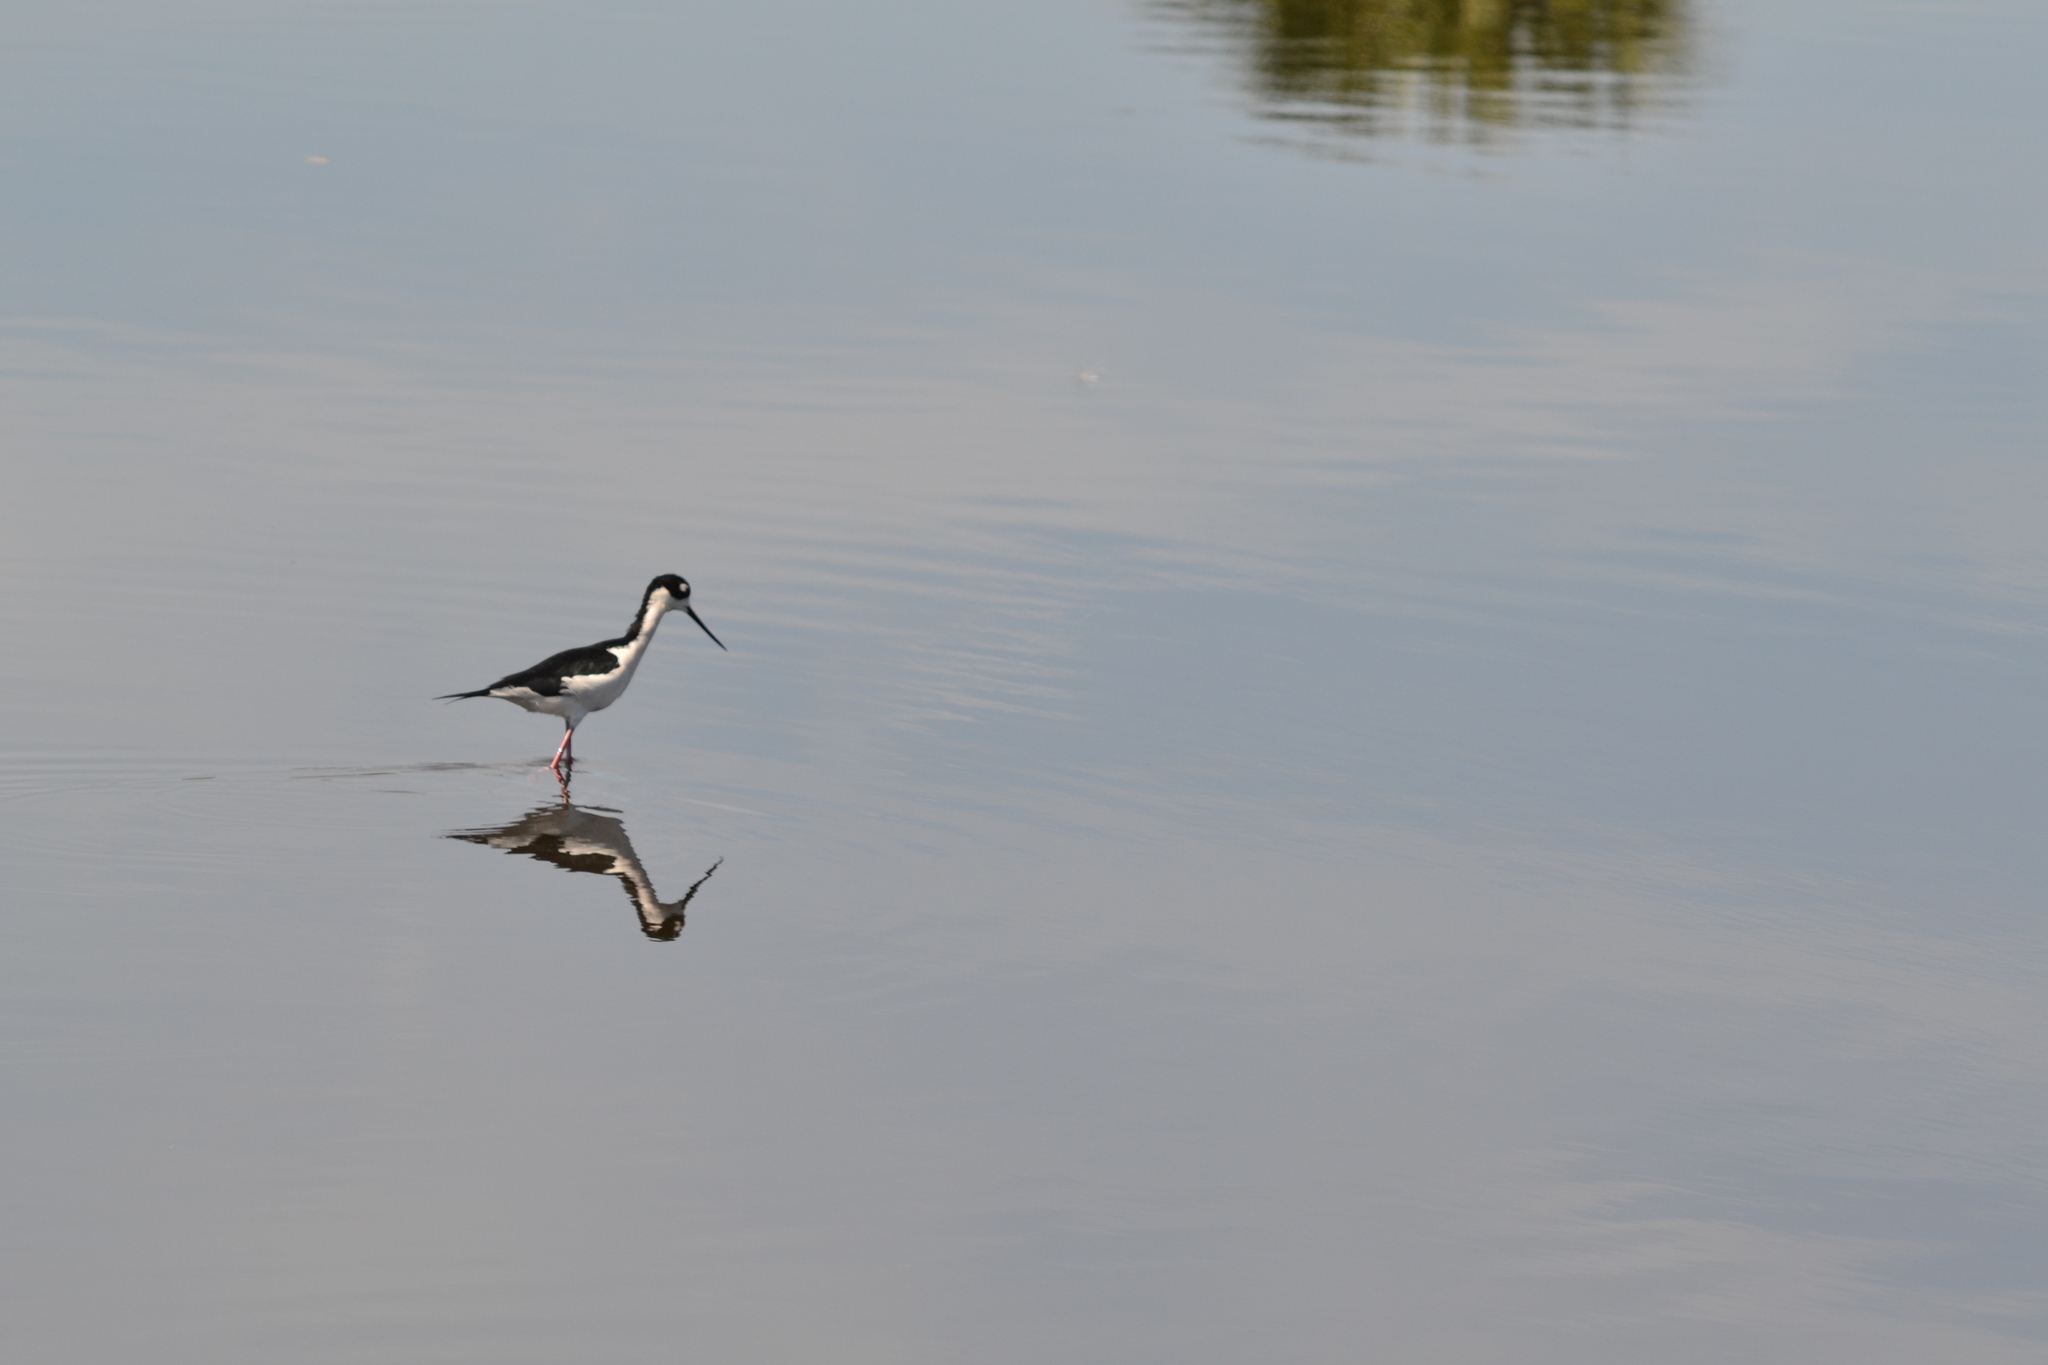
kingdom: Animalia
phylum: Chordata
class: Aves
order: Charadriiformes
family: Recurvirostridae
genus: Himantopus
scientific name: Himantopus mexicanus
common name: Black-necked stilt
